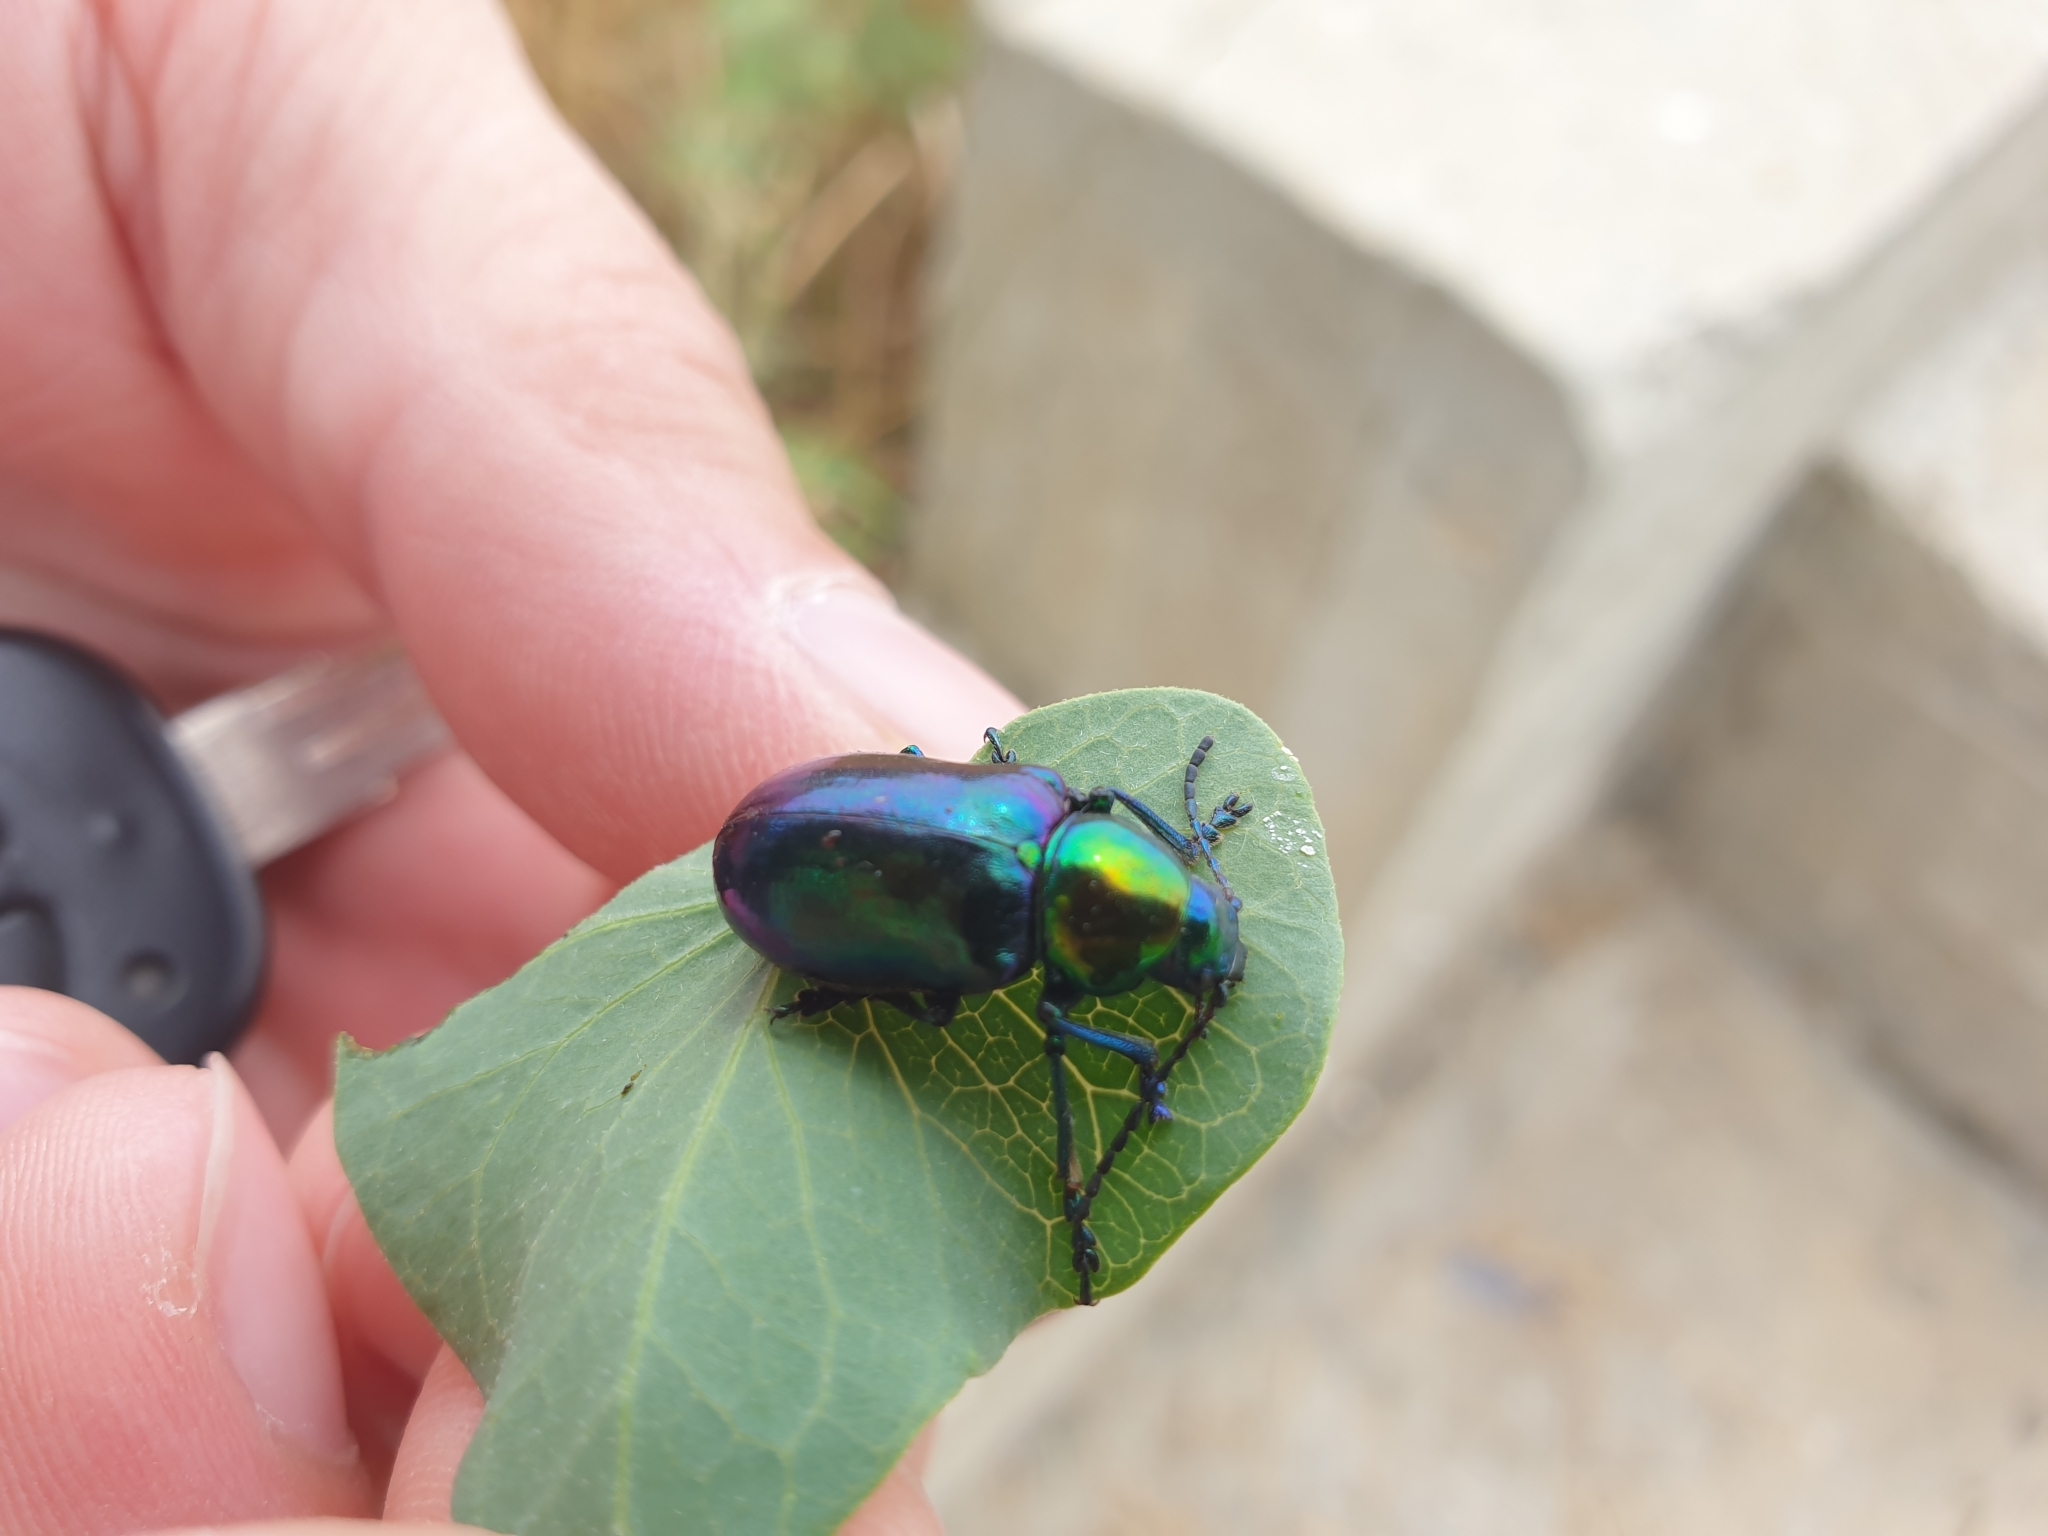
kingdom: Animalia
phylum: Arthropoda
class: Insecta
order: Coleoptera
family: Chrysomelidae
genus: Chrysochares
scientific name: Chrysochares
